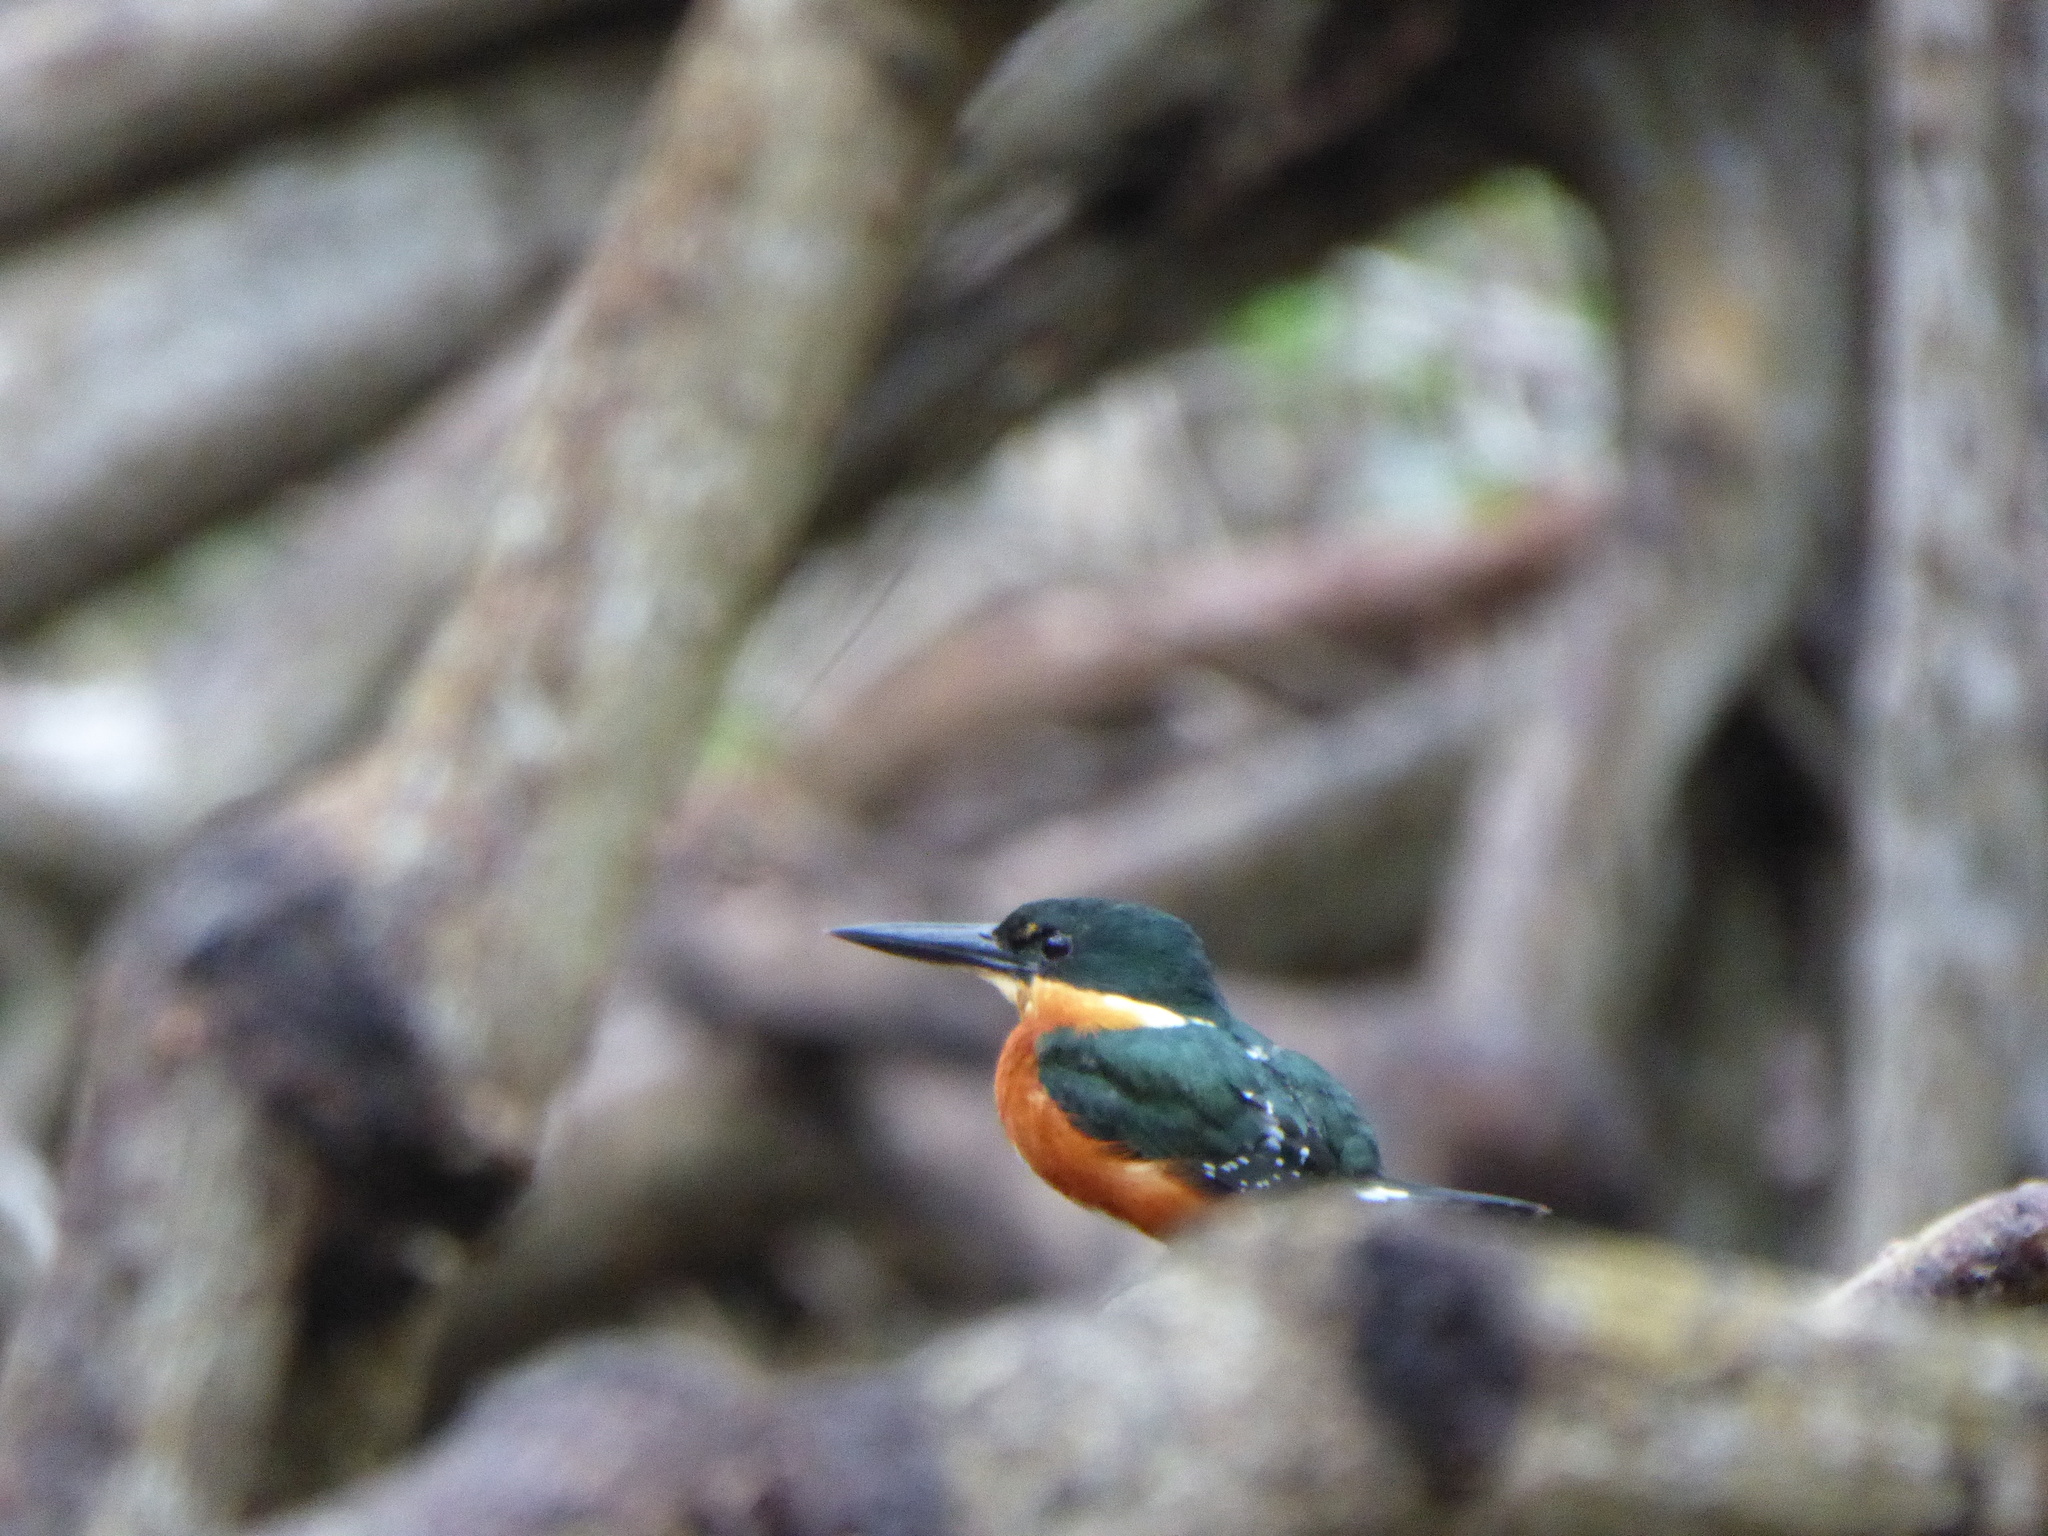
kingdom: Animalia
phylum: Chordata
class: Aves
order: Coraciiformes
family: Alcedinidae
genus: Chloroceryle
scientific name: Chloroceryle aenea
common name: American pygmy kingfisher
